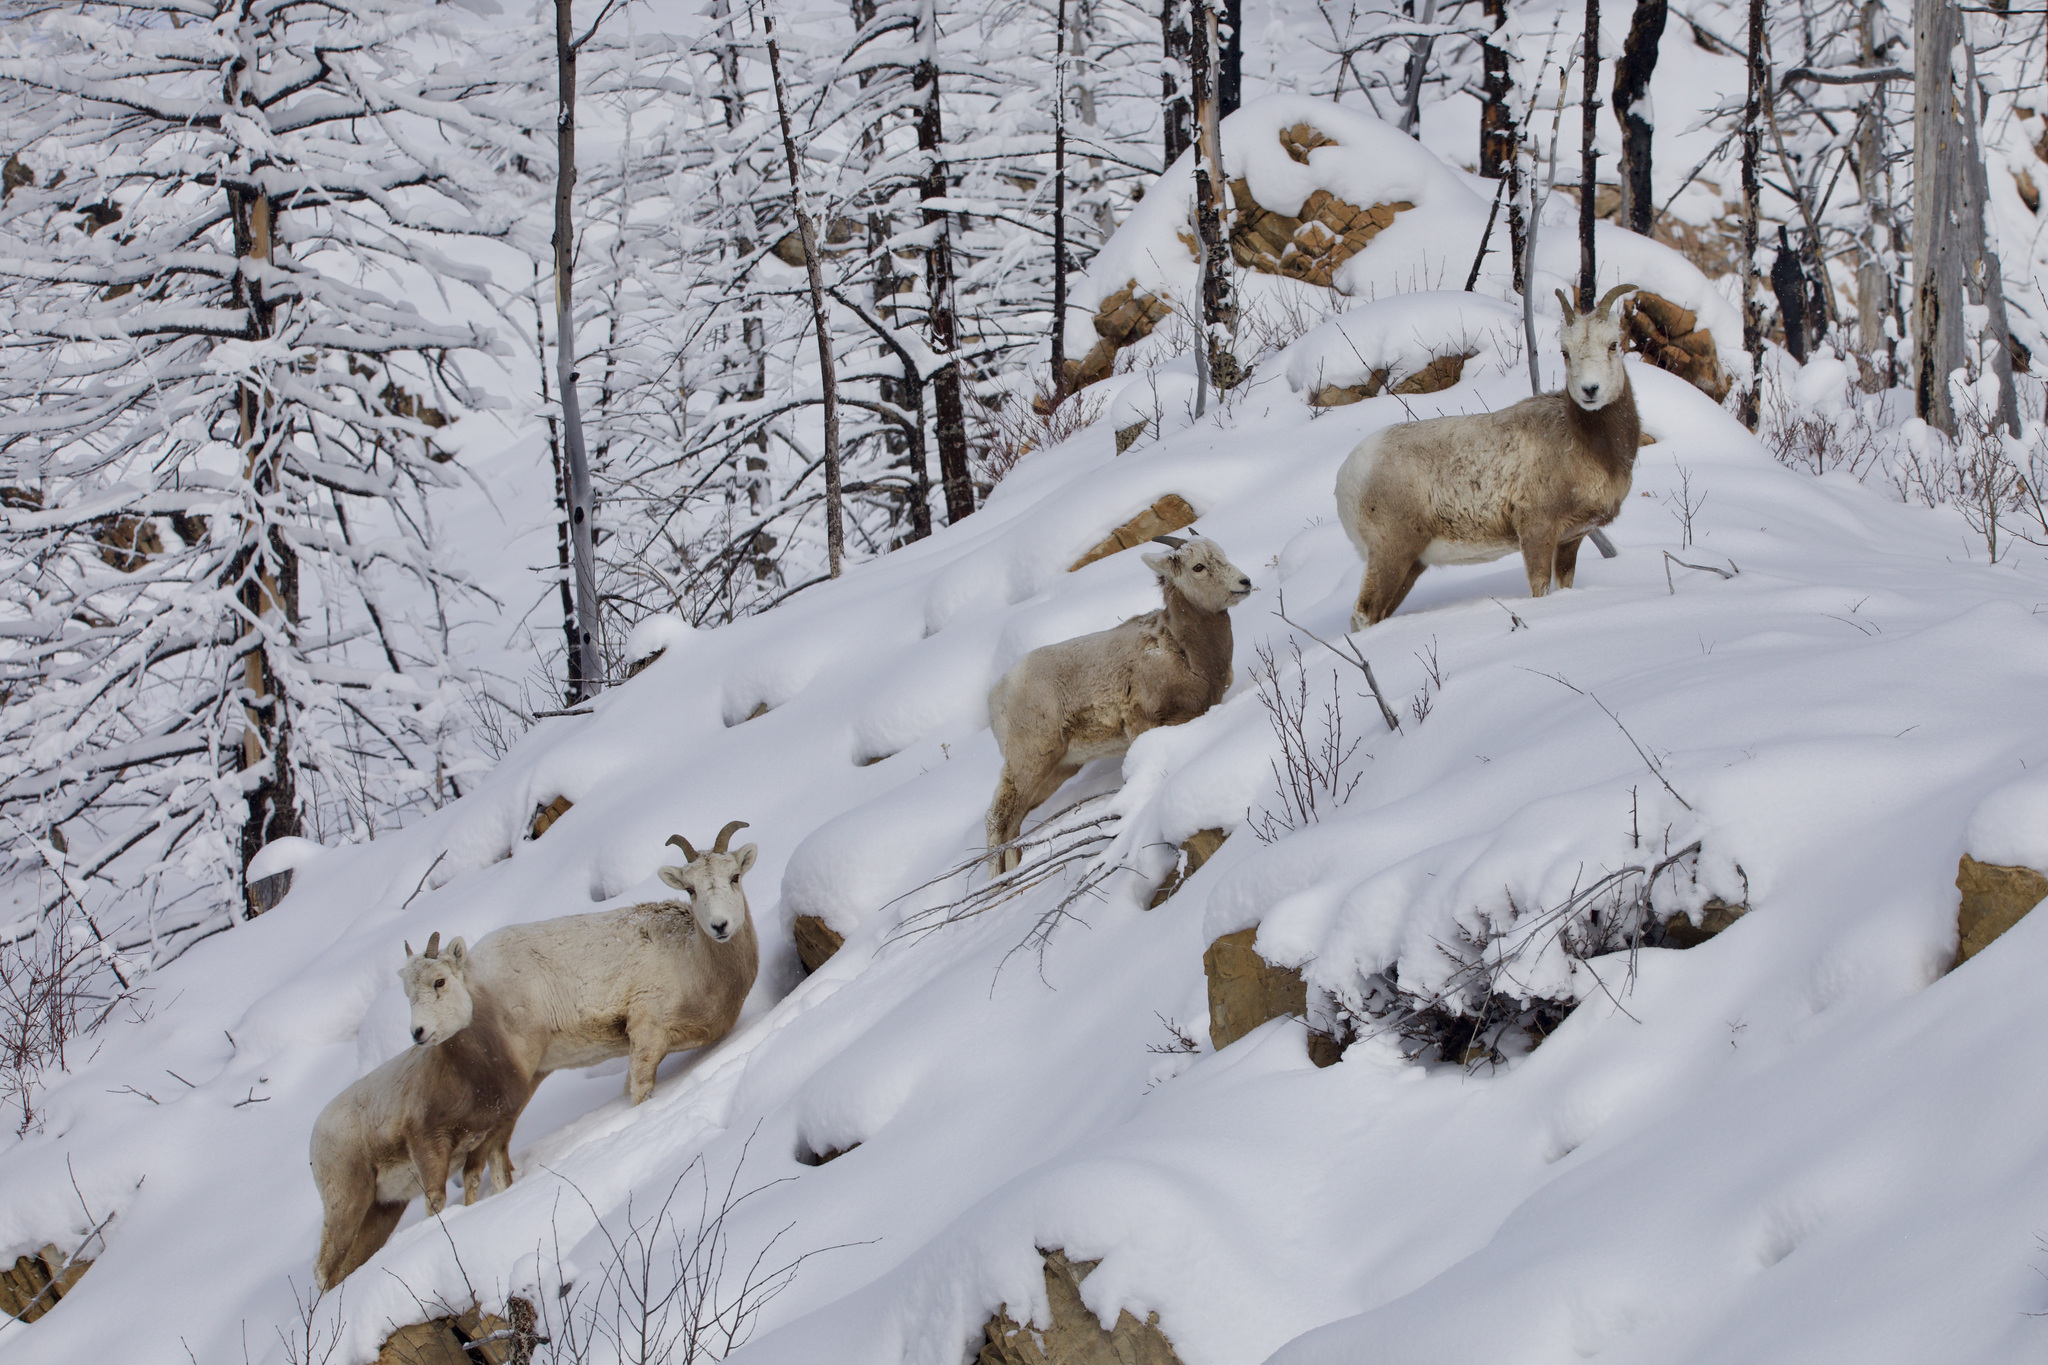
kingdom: Animalia
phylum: Chordata
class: Mammalia
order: Artiodactyla
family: Bovidae
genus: Ovis
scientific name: Ovis canadensis
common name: Bighorn sheep
